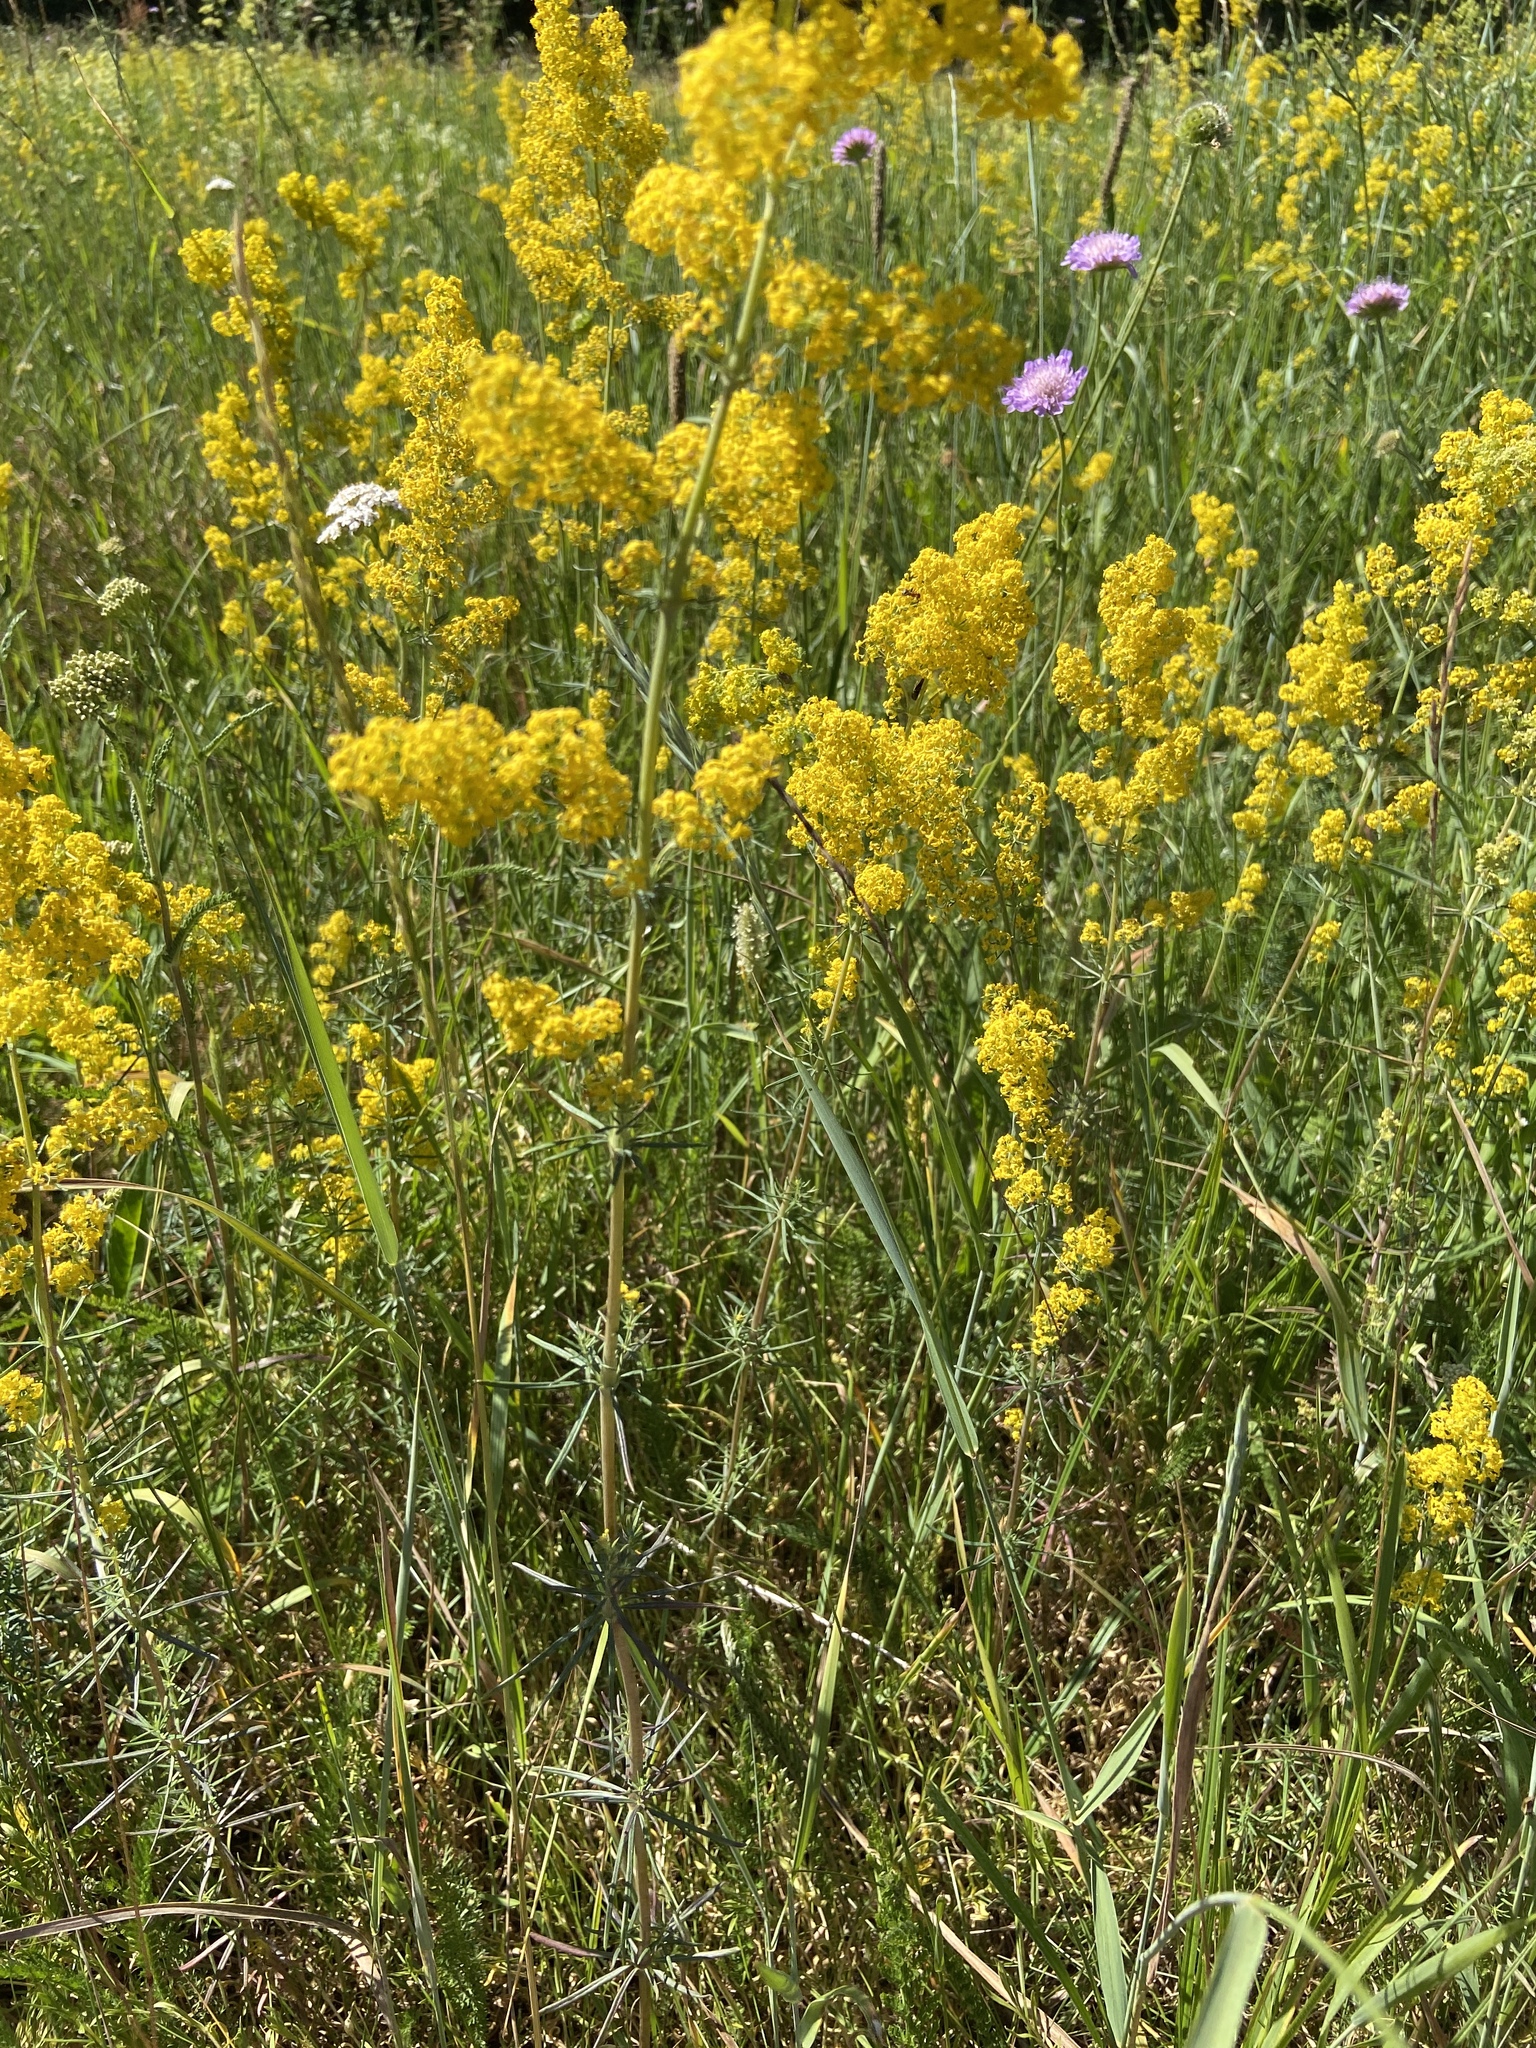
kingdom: Plantae
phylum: Tracheophyta
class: Magnoliopsida
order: Gentianales
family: Rubiaceae
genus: Galium
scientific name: Galium verum
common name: Lady's bedstraw
